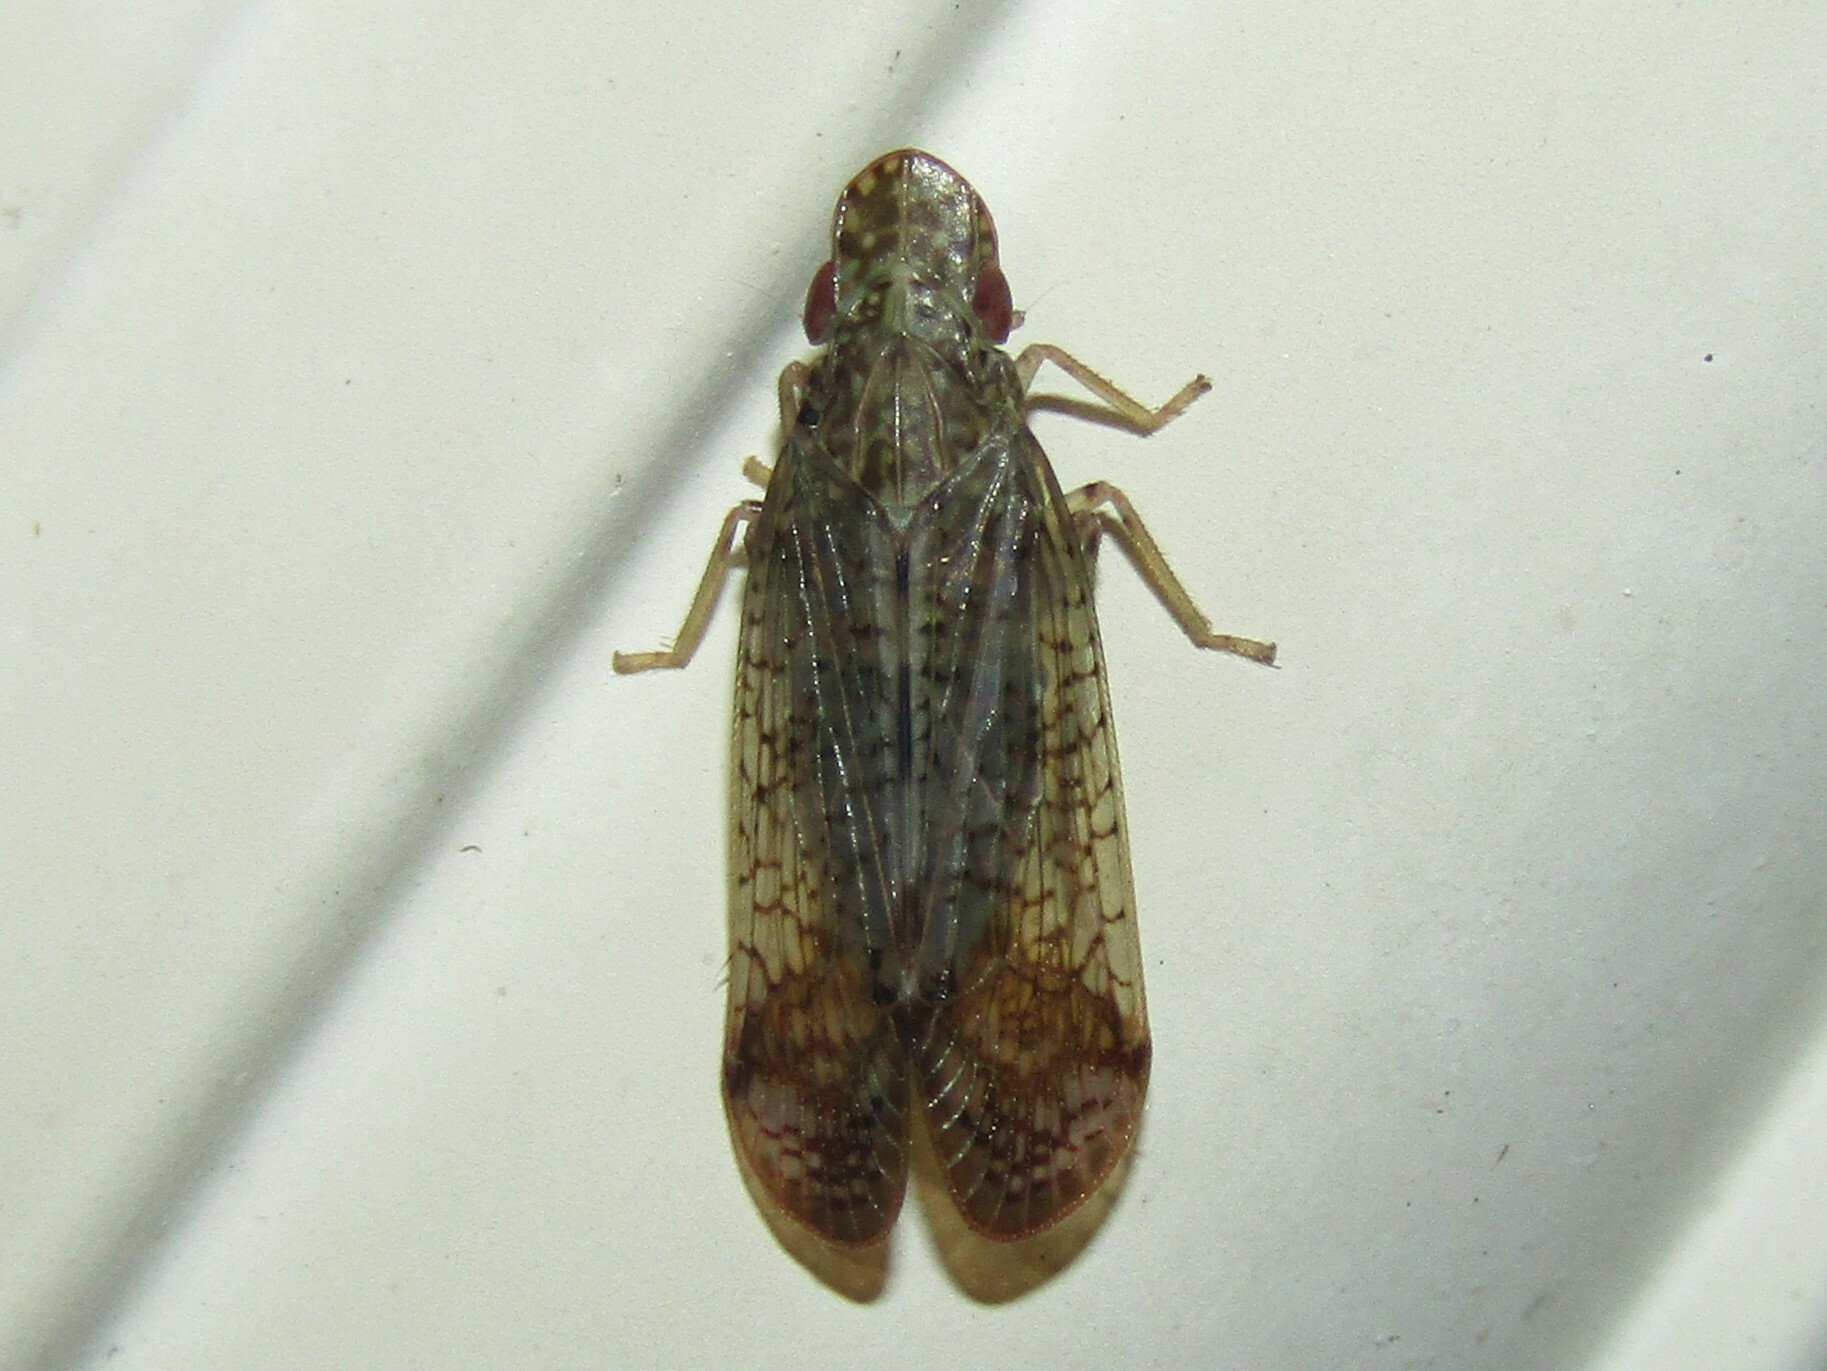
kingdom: Animalia
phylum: Arthropoda
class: Insecta
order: Hemiptera
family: Tropiduchidae
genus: Pelitropis
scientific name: Pelitropis rotulata
